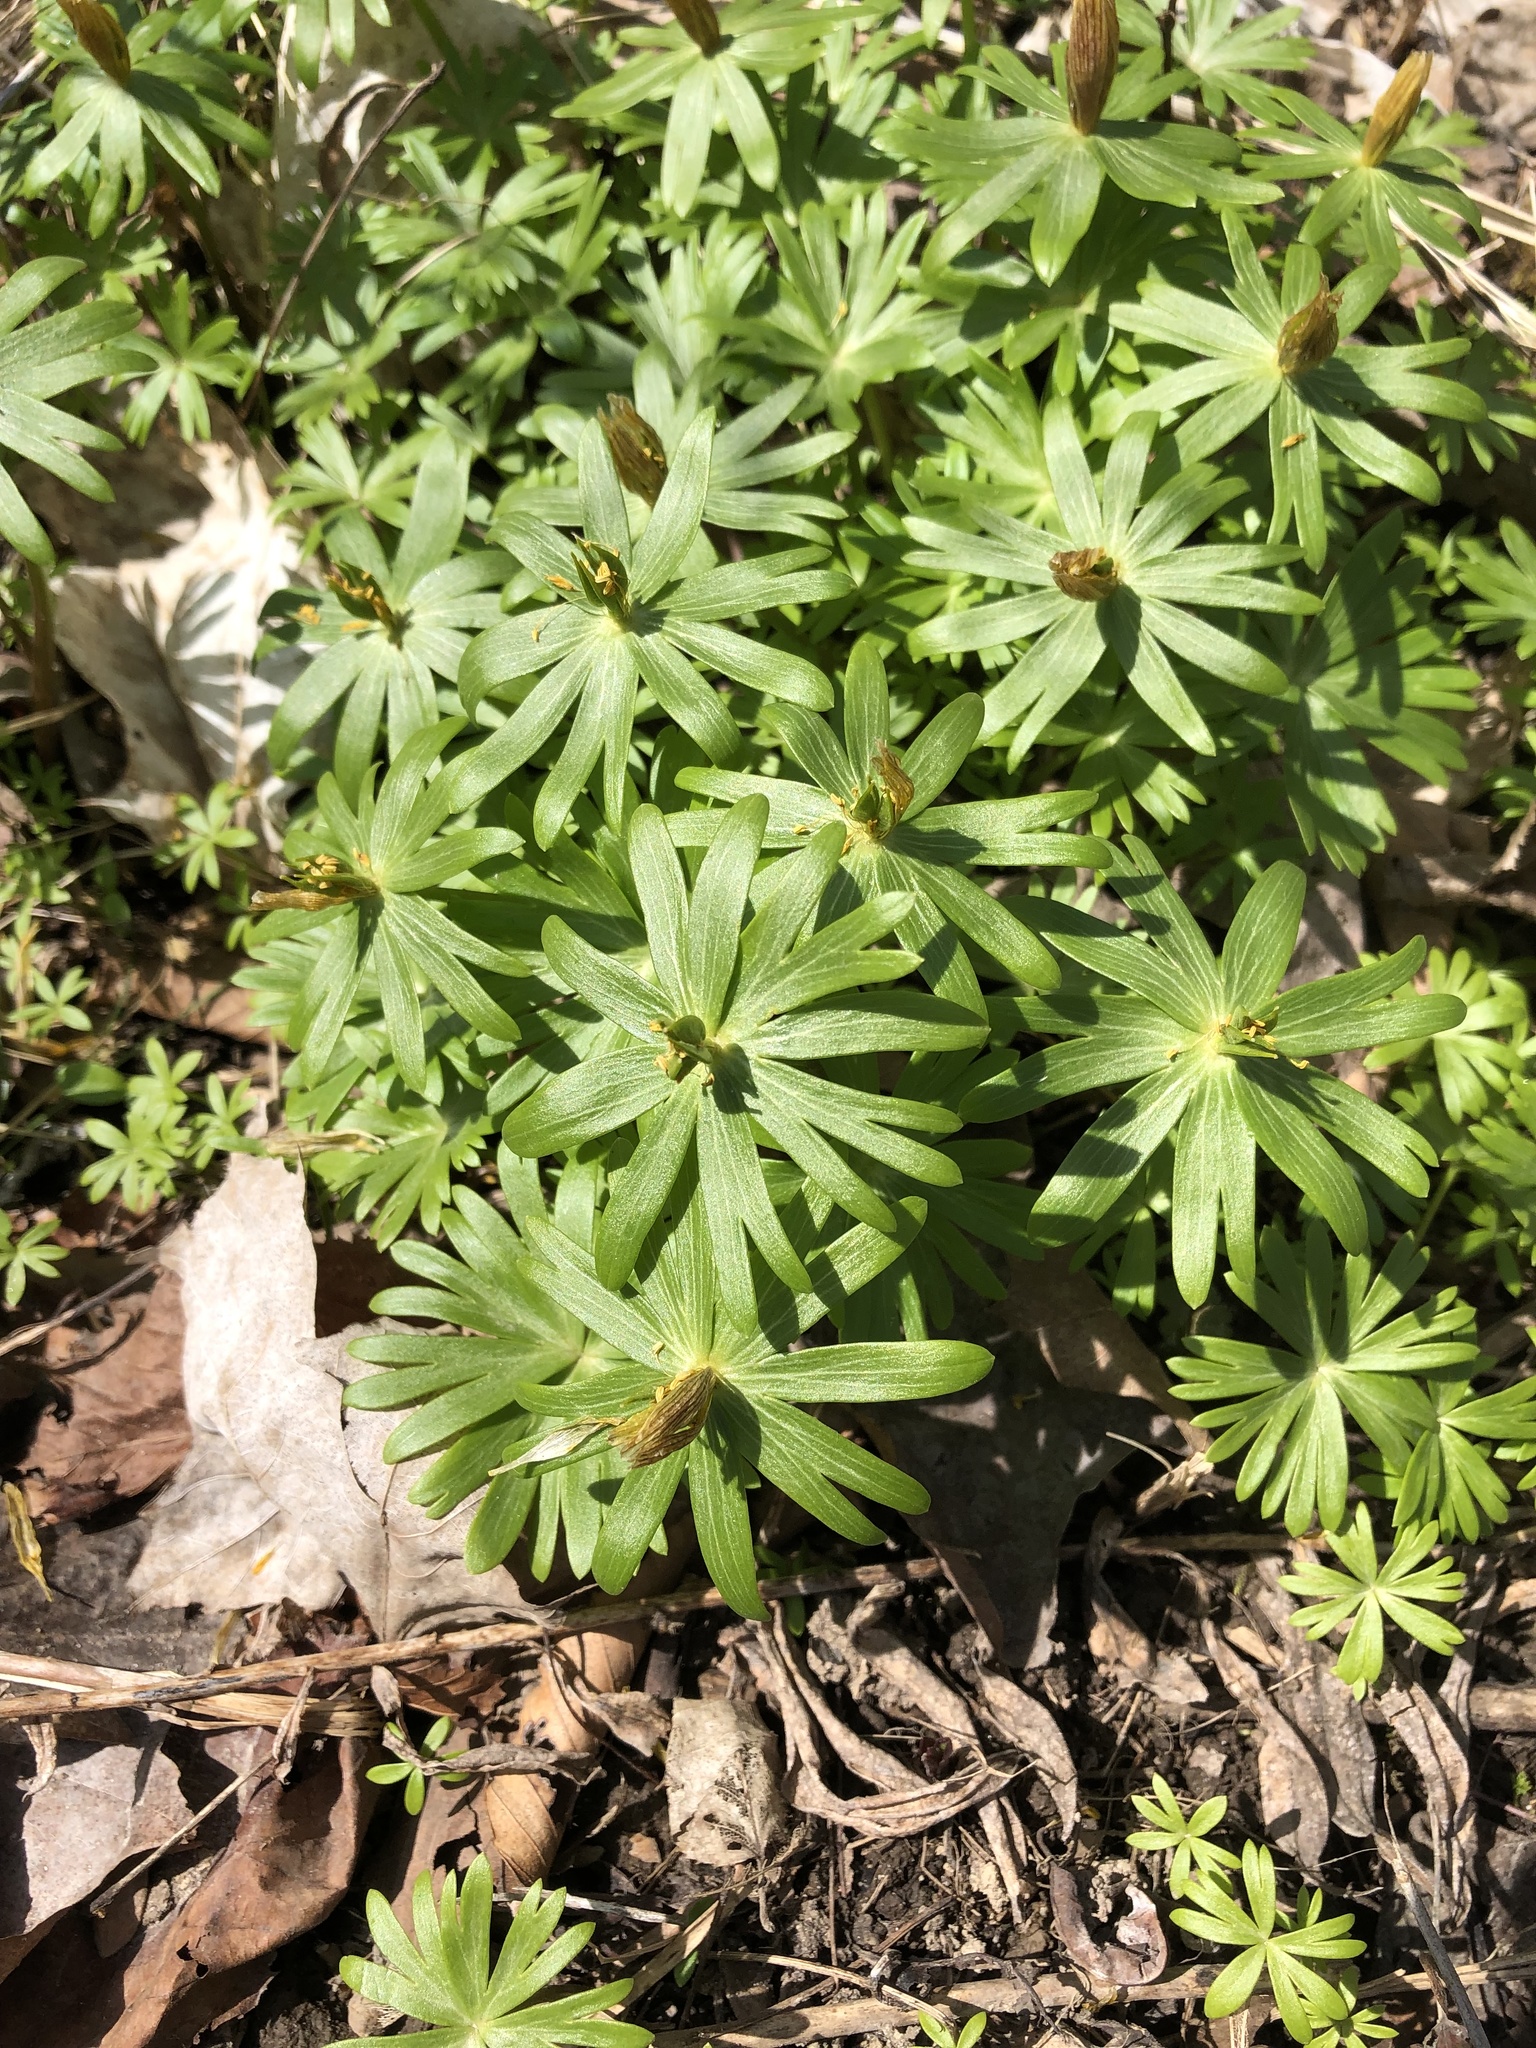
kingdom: Plantae
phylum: Tracheophyta
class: Magnoliopsida
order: Ranunculales
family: Ranunculaceae
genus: Eranthis
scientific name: Eranthis hyemalis
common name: Winter aconite
